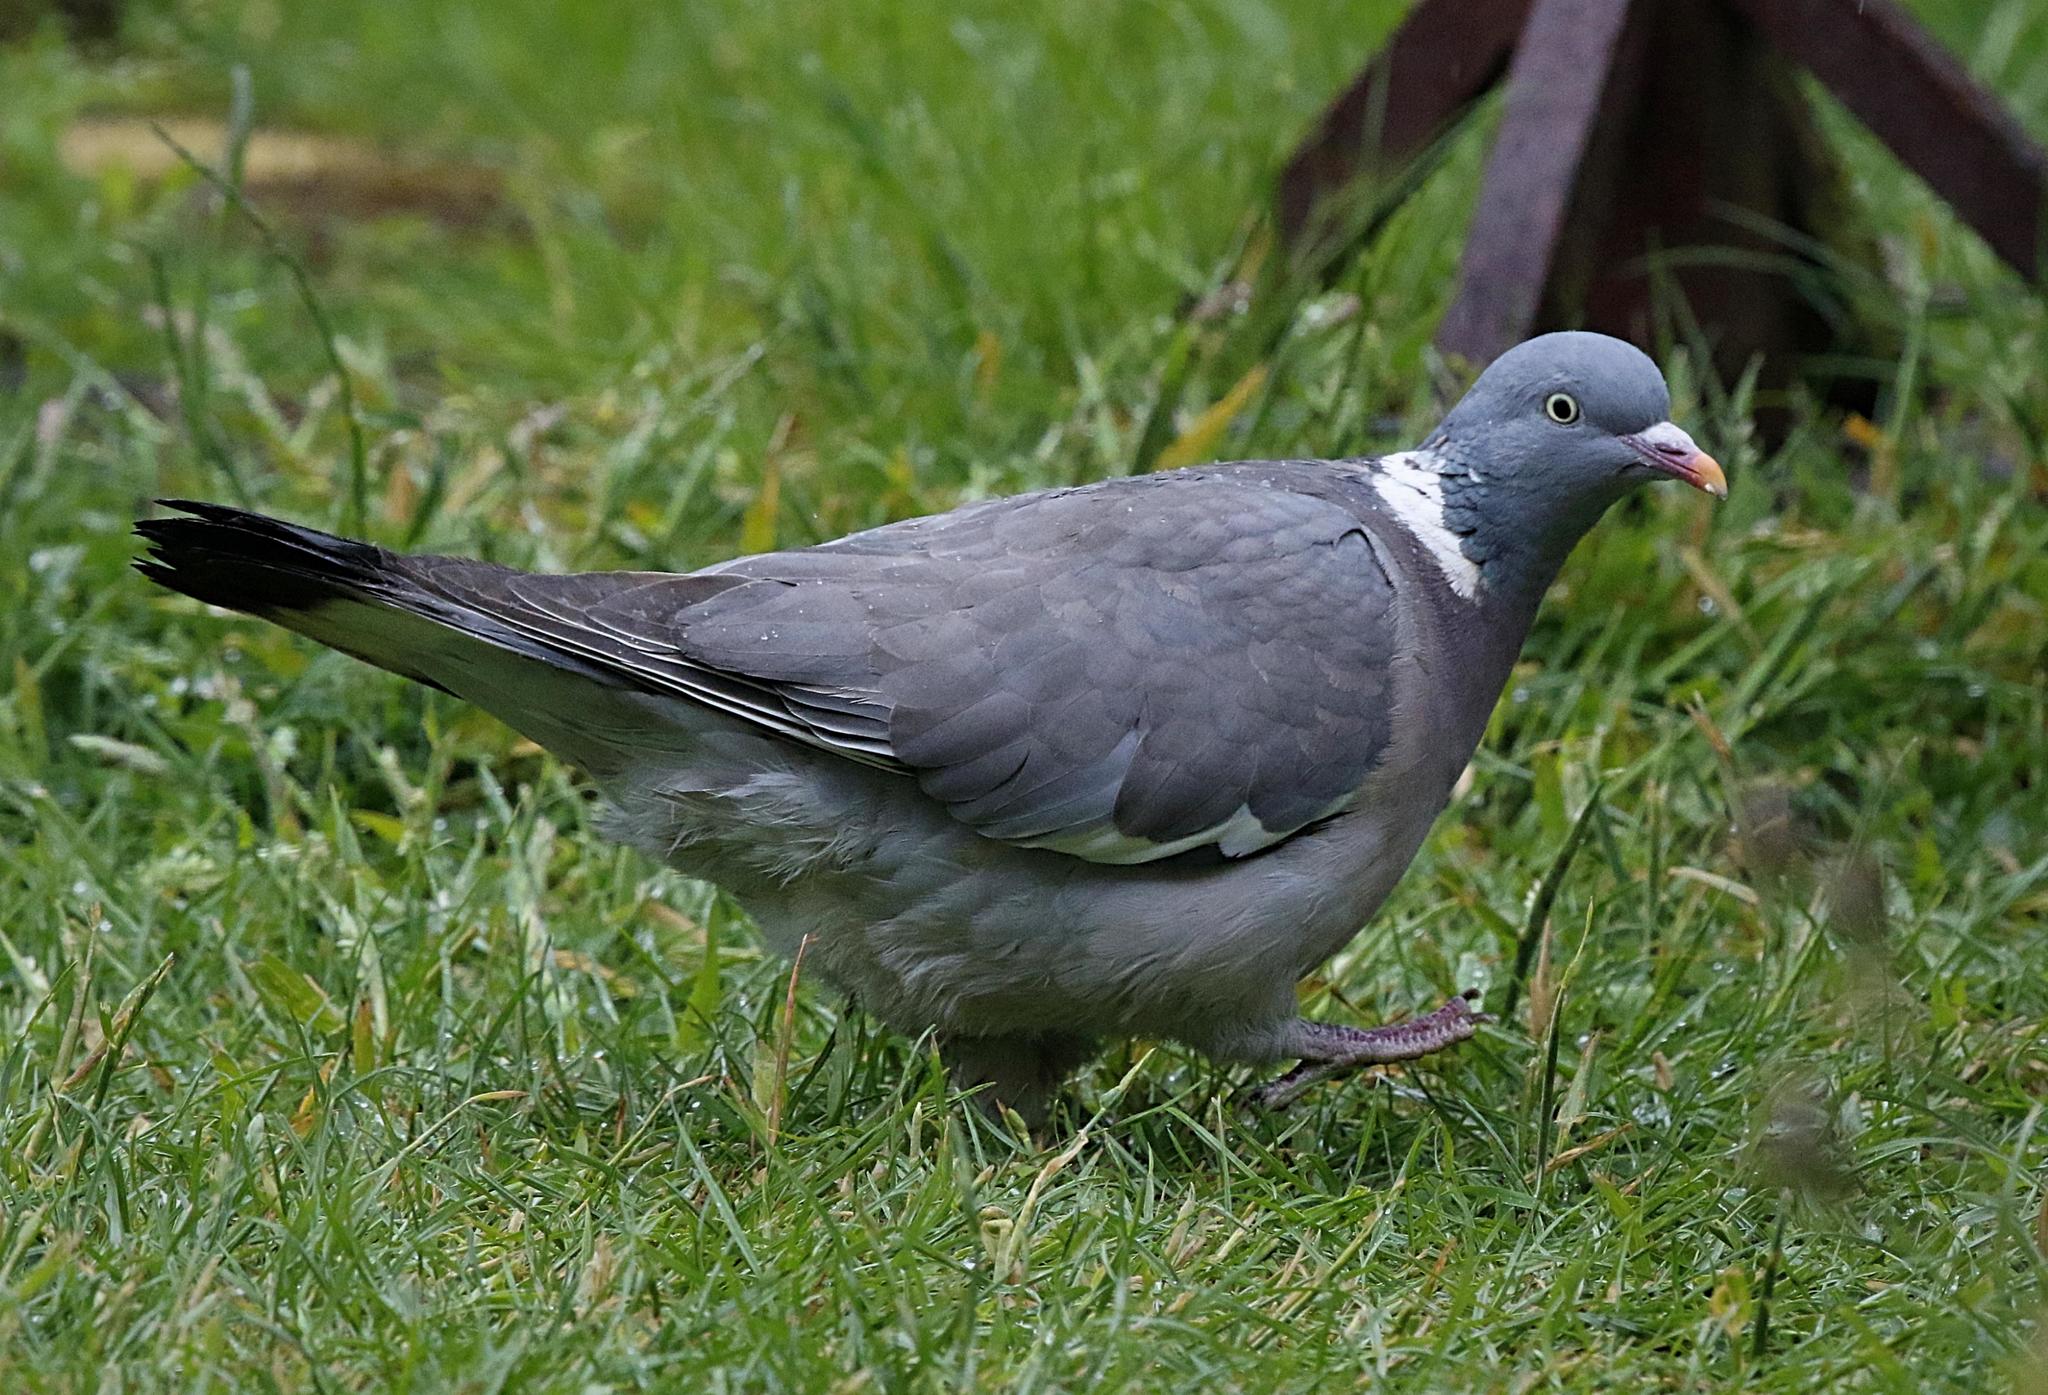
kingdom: Animalia
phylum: Chordata
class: Aves
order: Columbiformes
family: Columbidae
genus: Columba
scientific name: Columba palumbus
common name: Common wood pigeon
